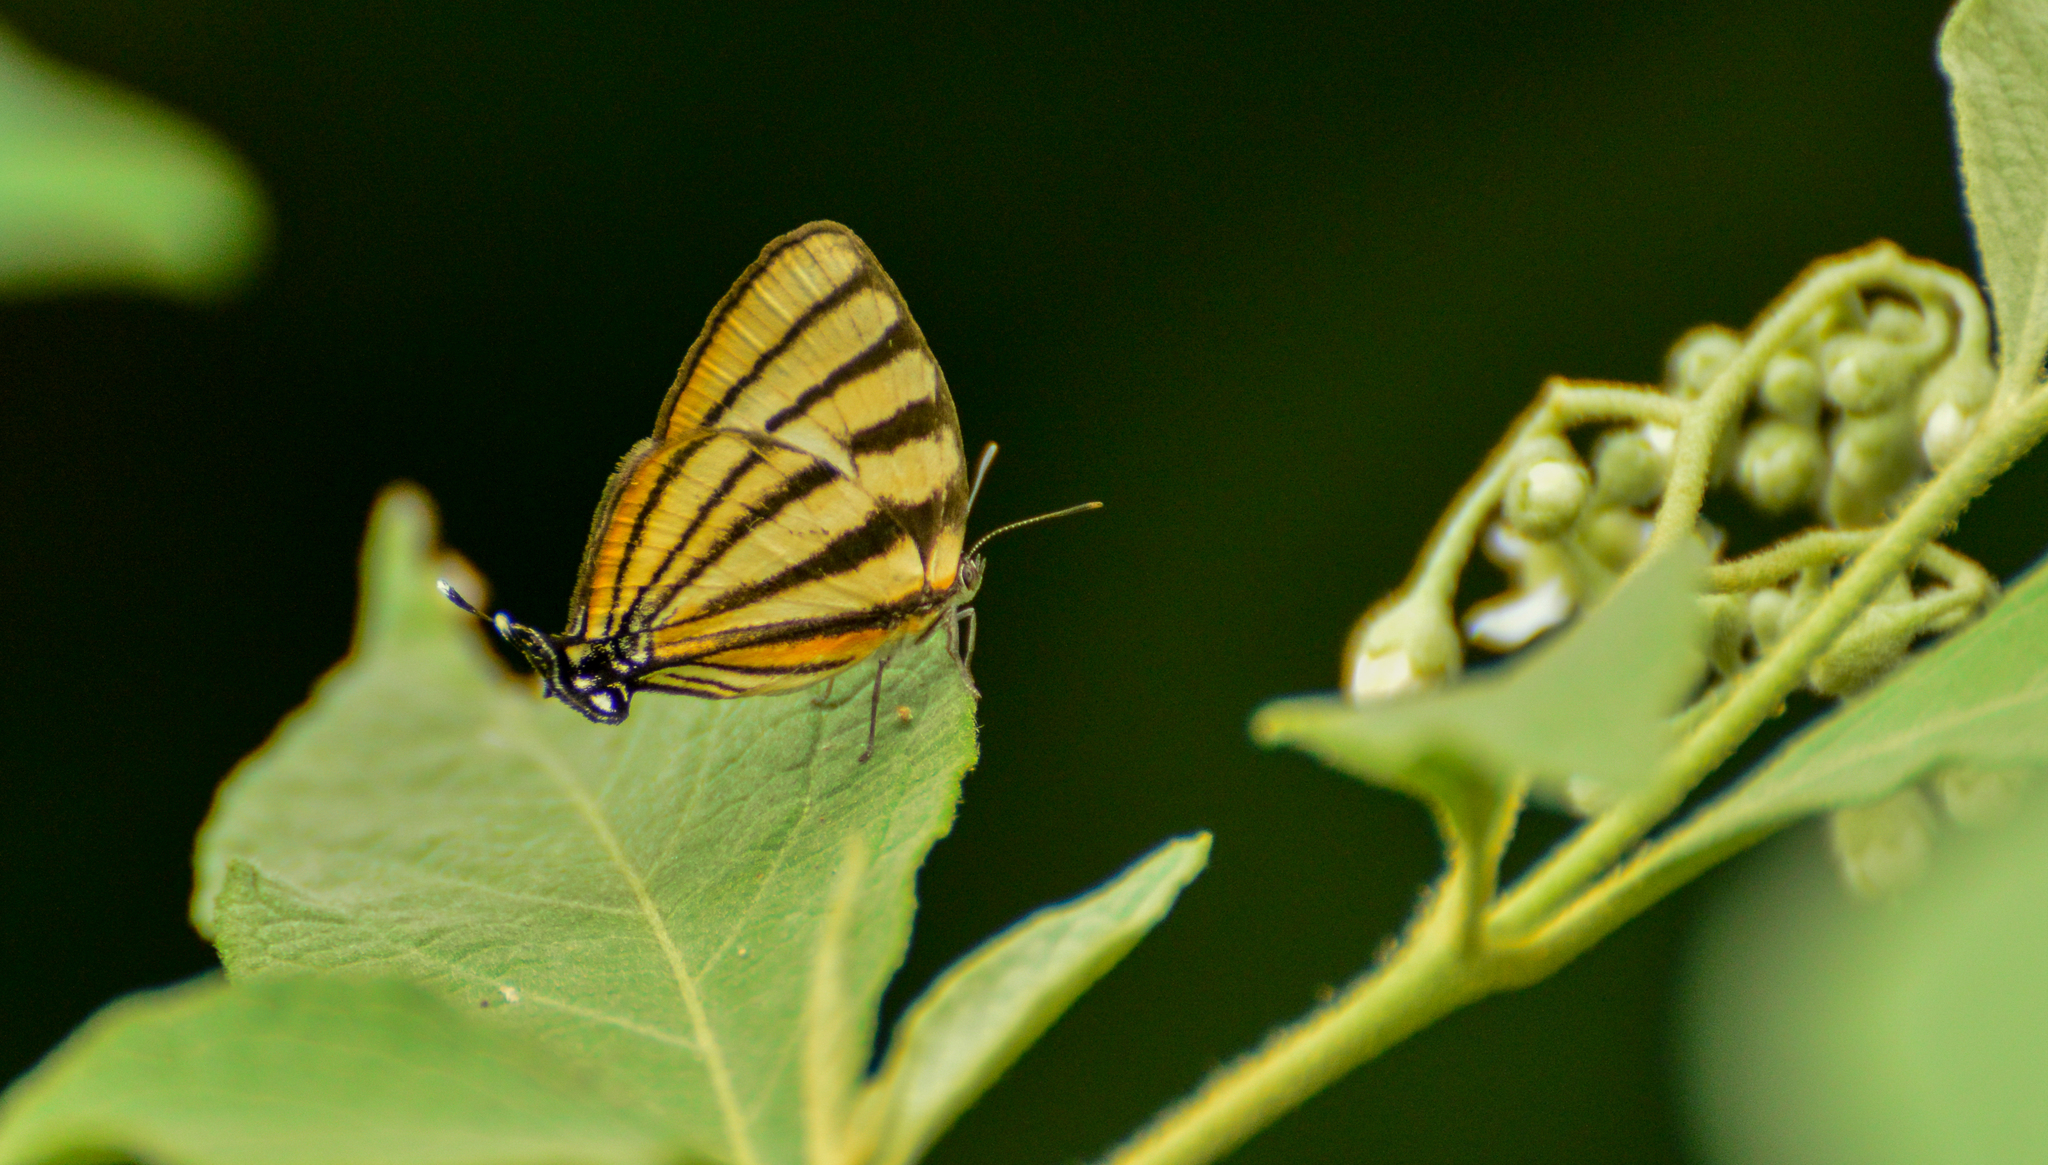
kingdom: Animalia
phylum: Arthropoda
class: Insecta
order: Lepidoptera
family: Lycaenidae
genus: Arawacus
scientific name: Arawacus separata
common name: Separated stripestreak
